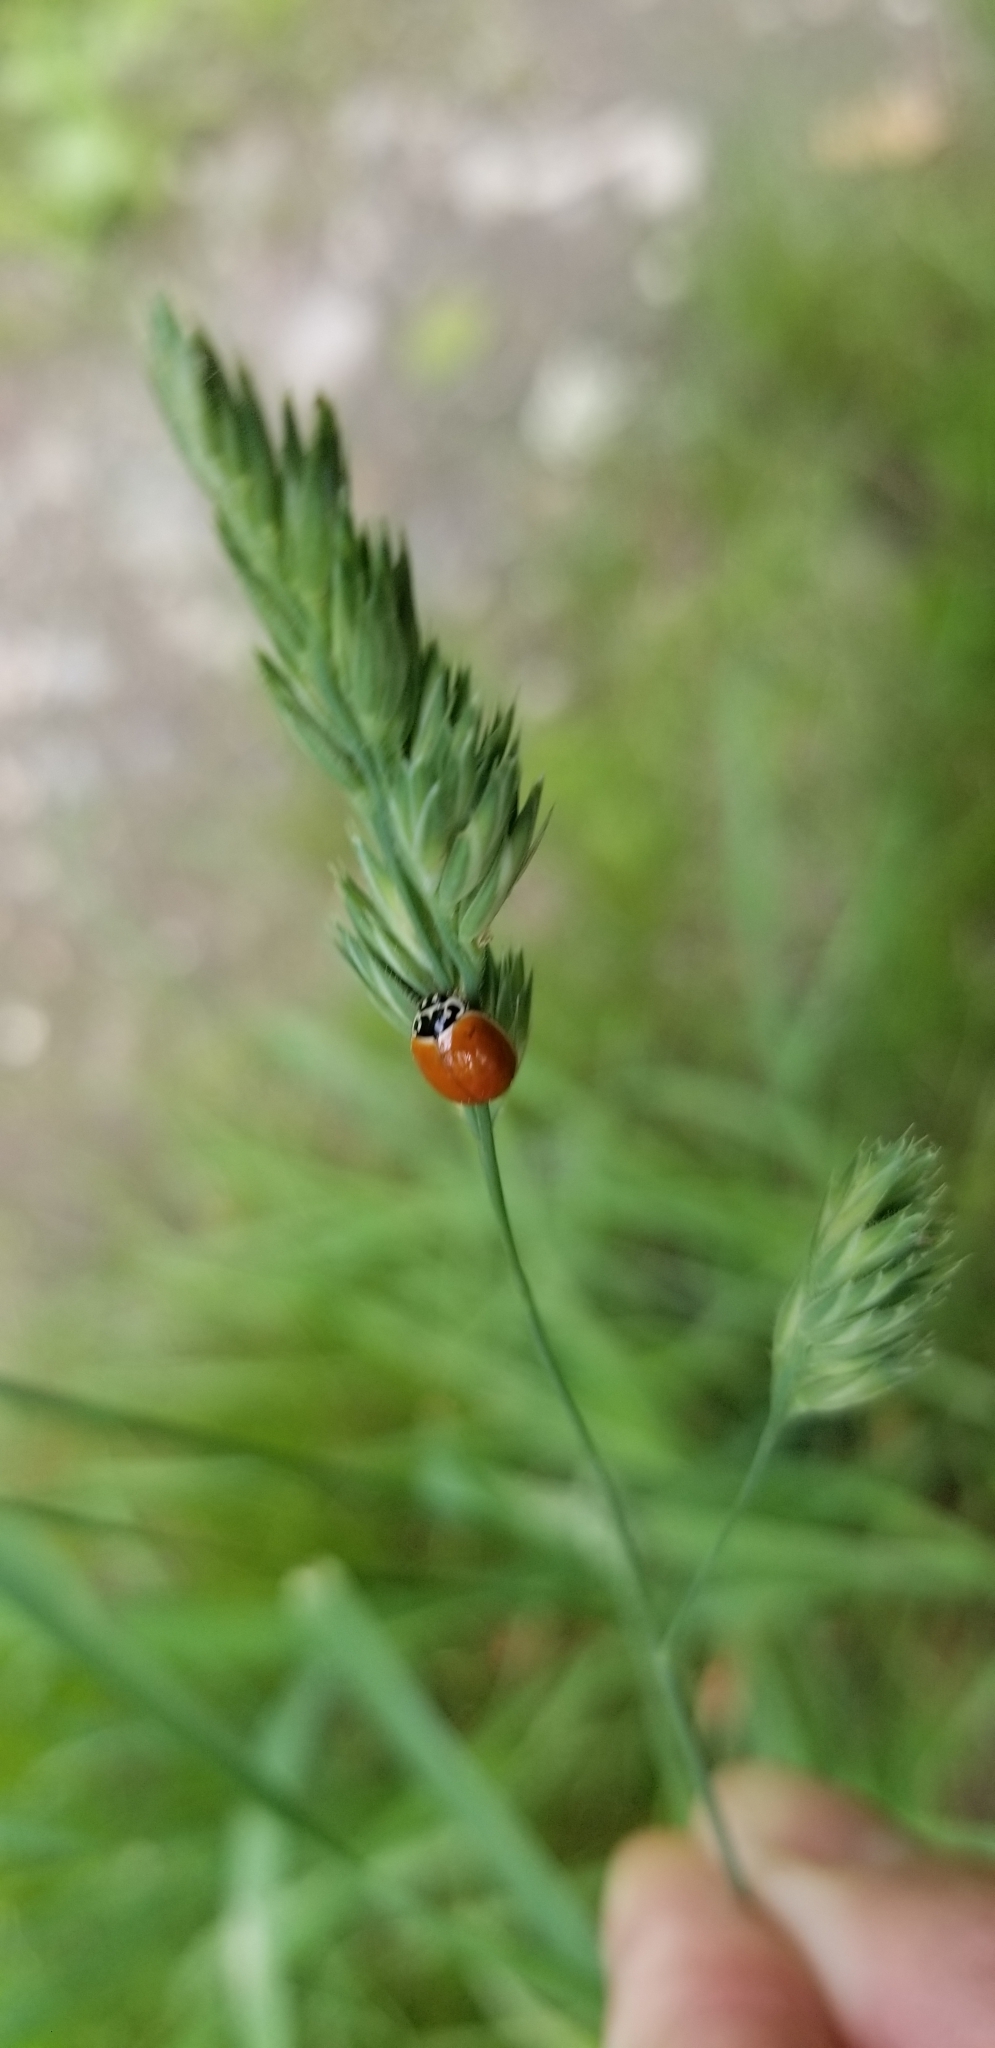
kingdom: Animalia
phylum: Arthropoda
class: Insecta
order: Coleoptera
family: Coccinellidae
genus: Cycloneda
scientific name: Cycloneda munda
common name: Polished lady beetle
